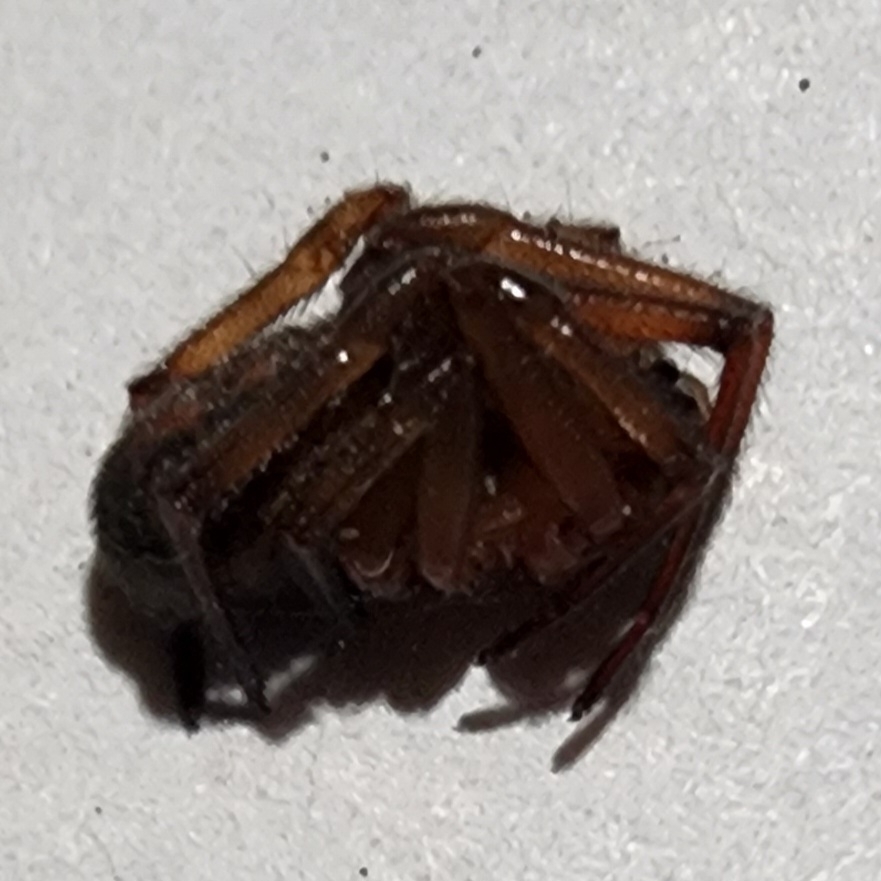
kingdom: Animalia
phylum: Arthropoda
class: Arachnida
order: Araneae
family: Theridiidae
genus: Steatoda
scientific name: Steatoda nobilis
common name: Cobweb weaver
